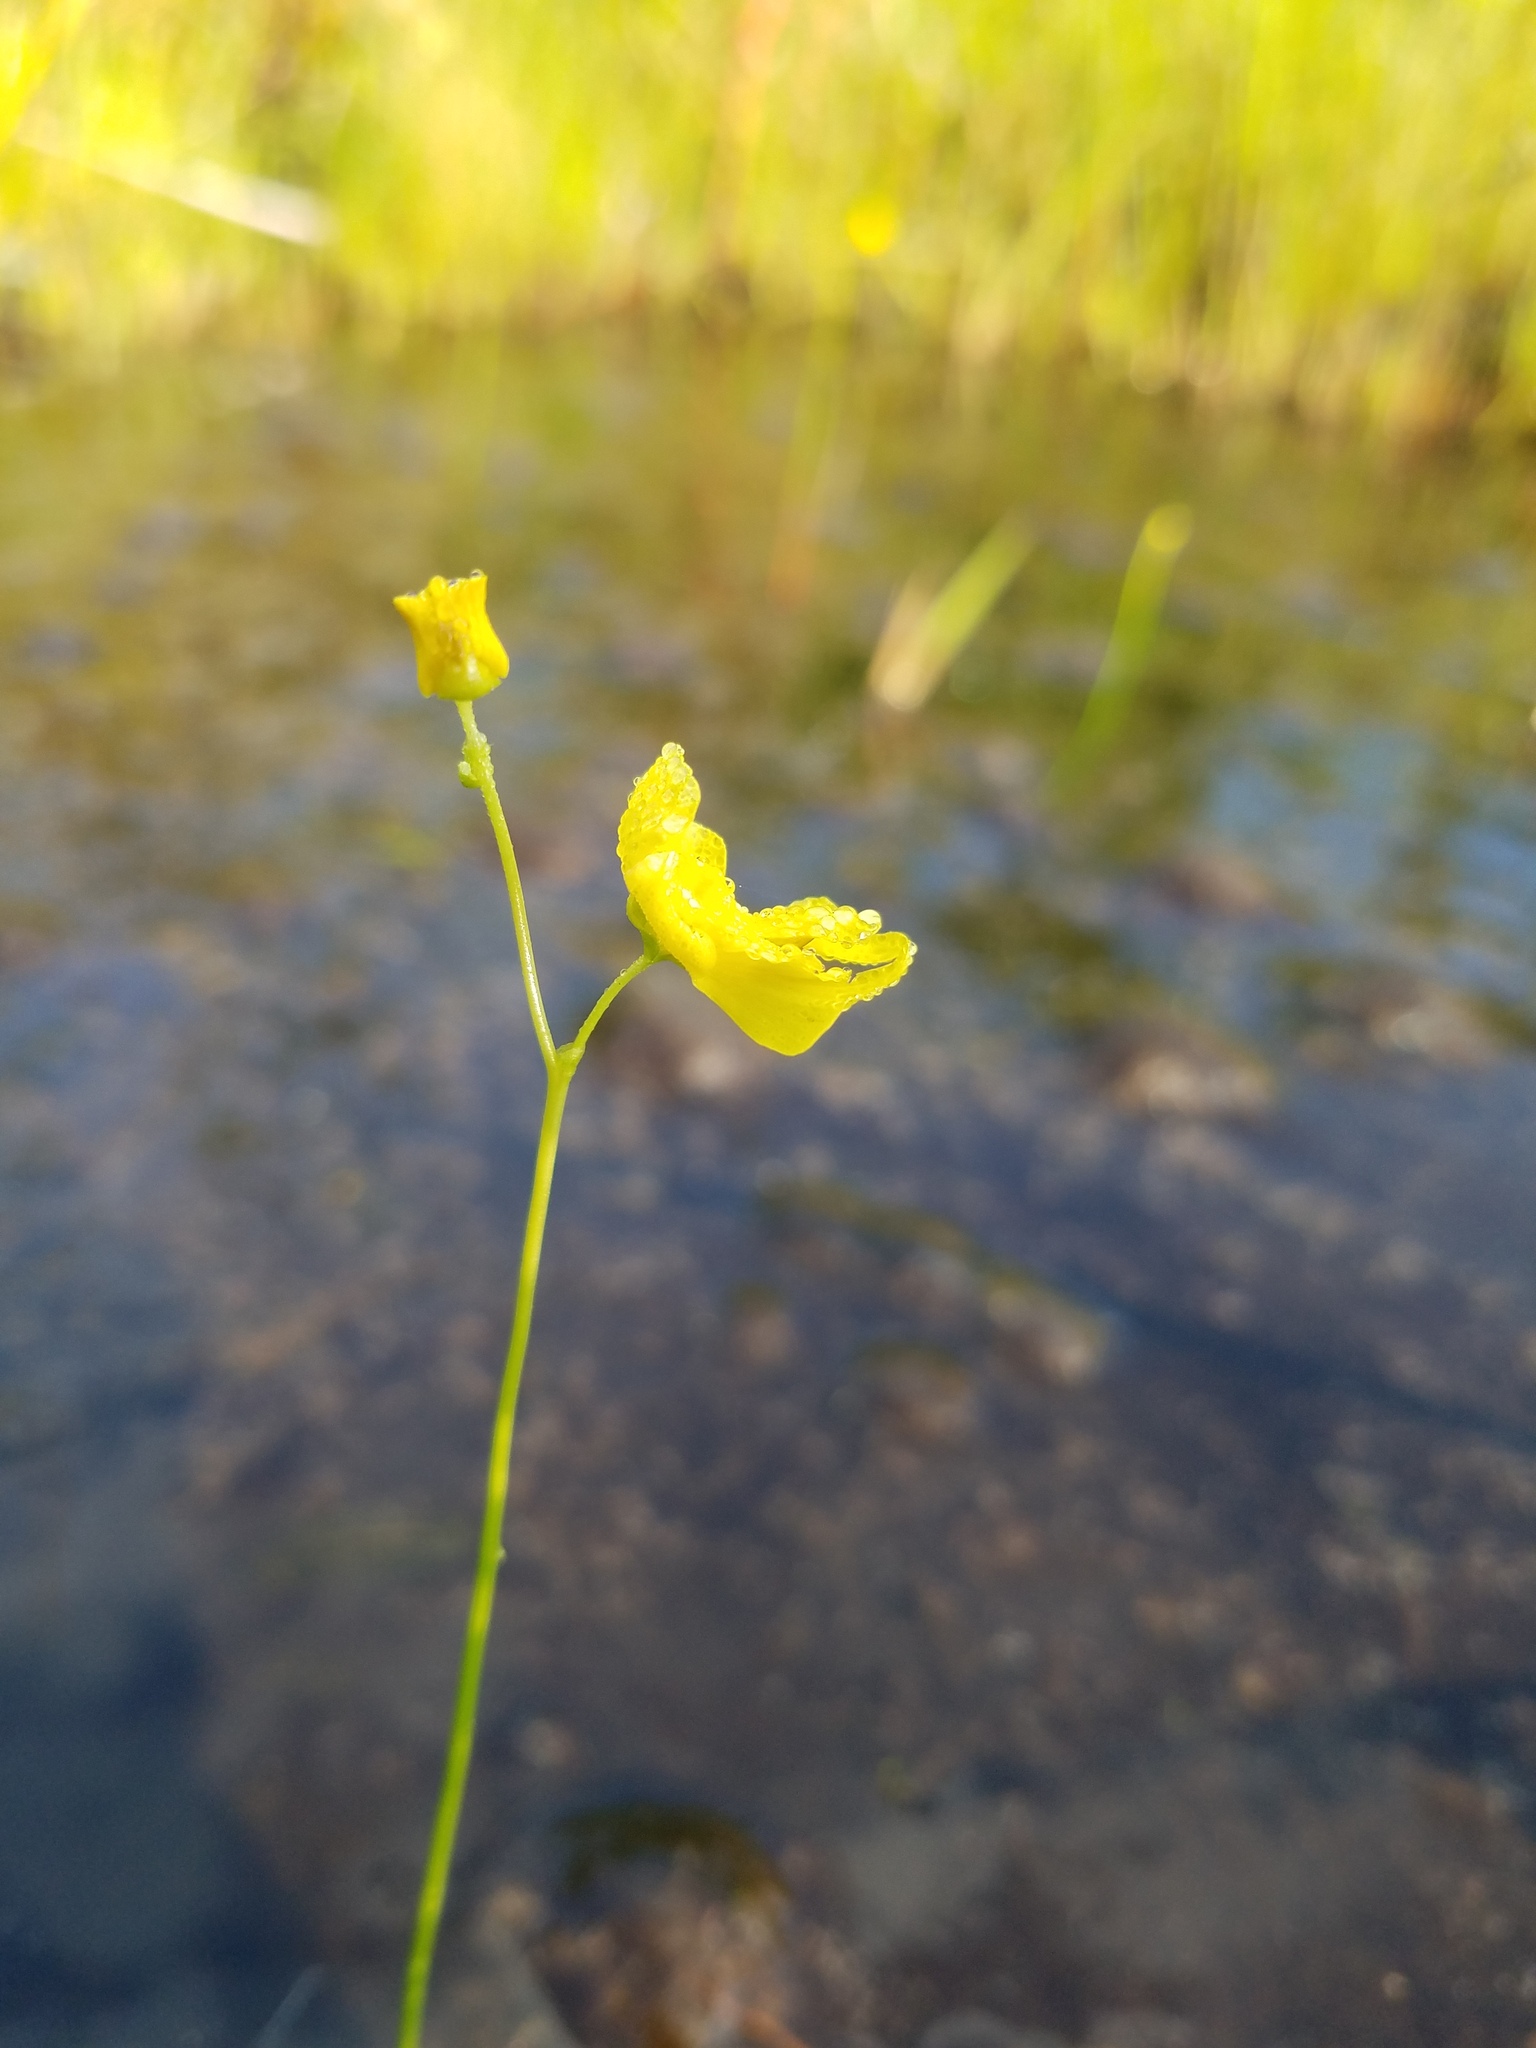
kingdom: Plantae
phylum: Tracheophyta
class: Magnoliopsida
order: Lamiales
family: Lentibulariaceae
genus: Utricularia
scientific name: Utricularia striata
